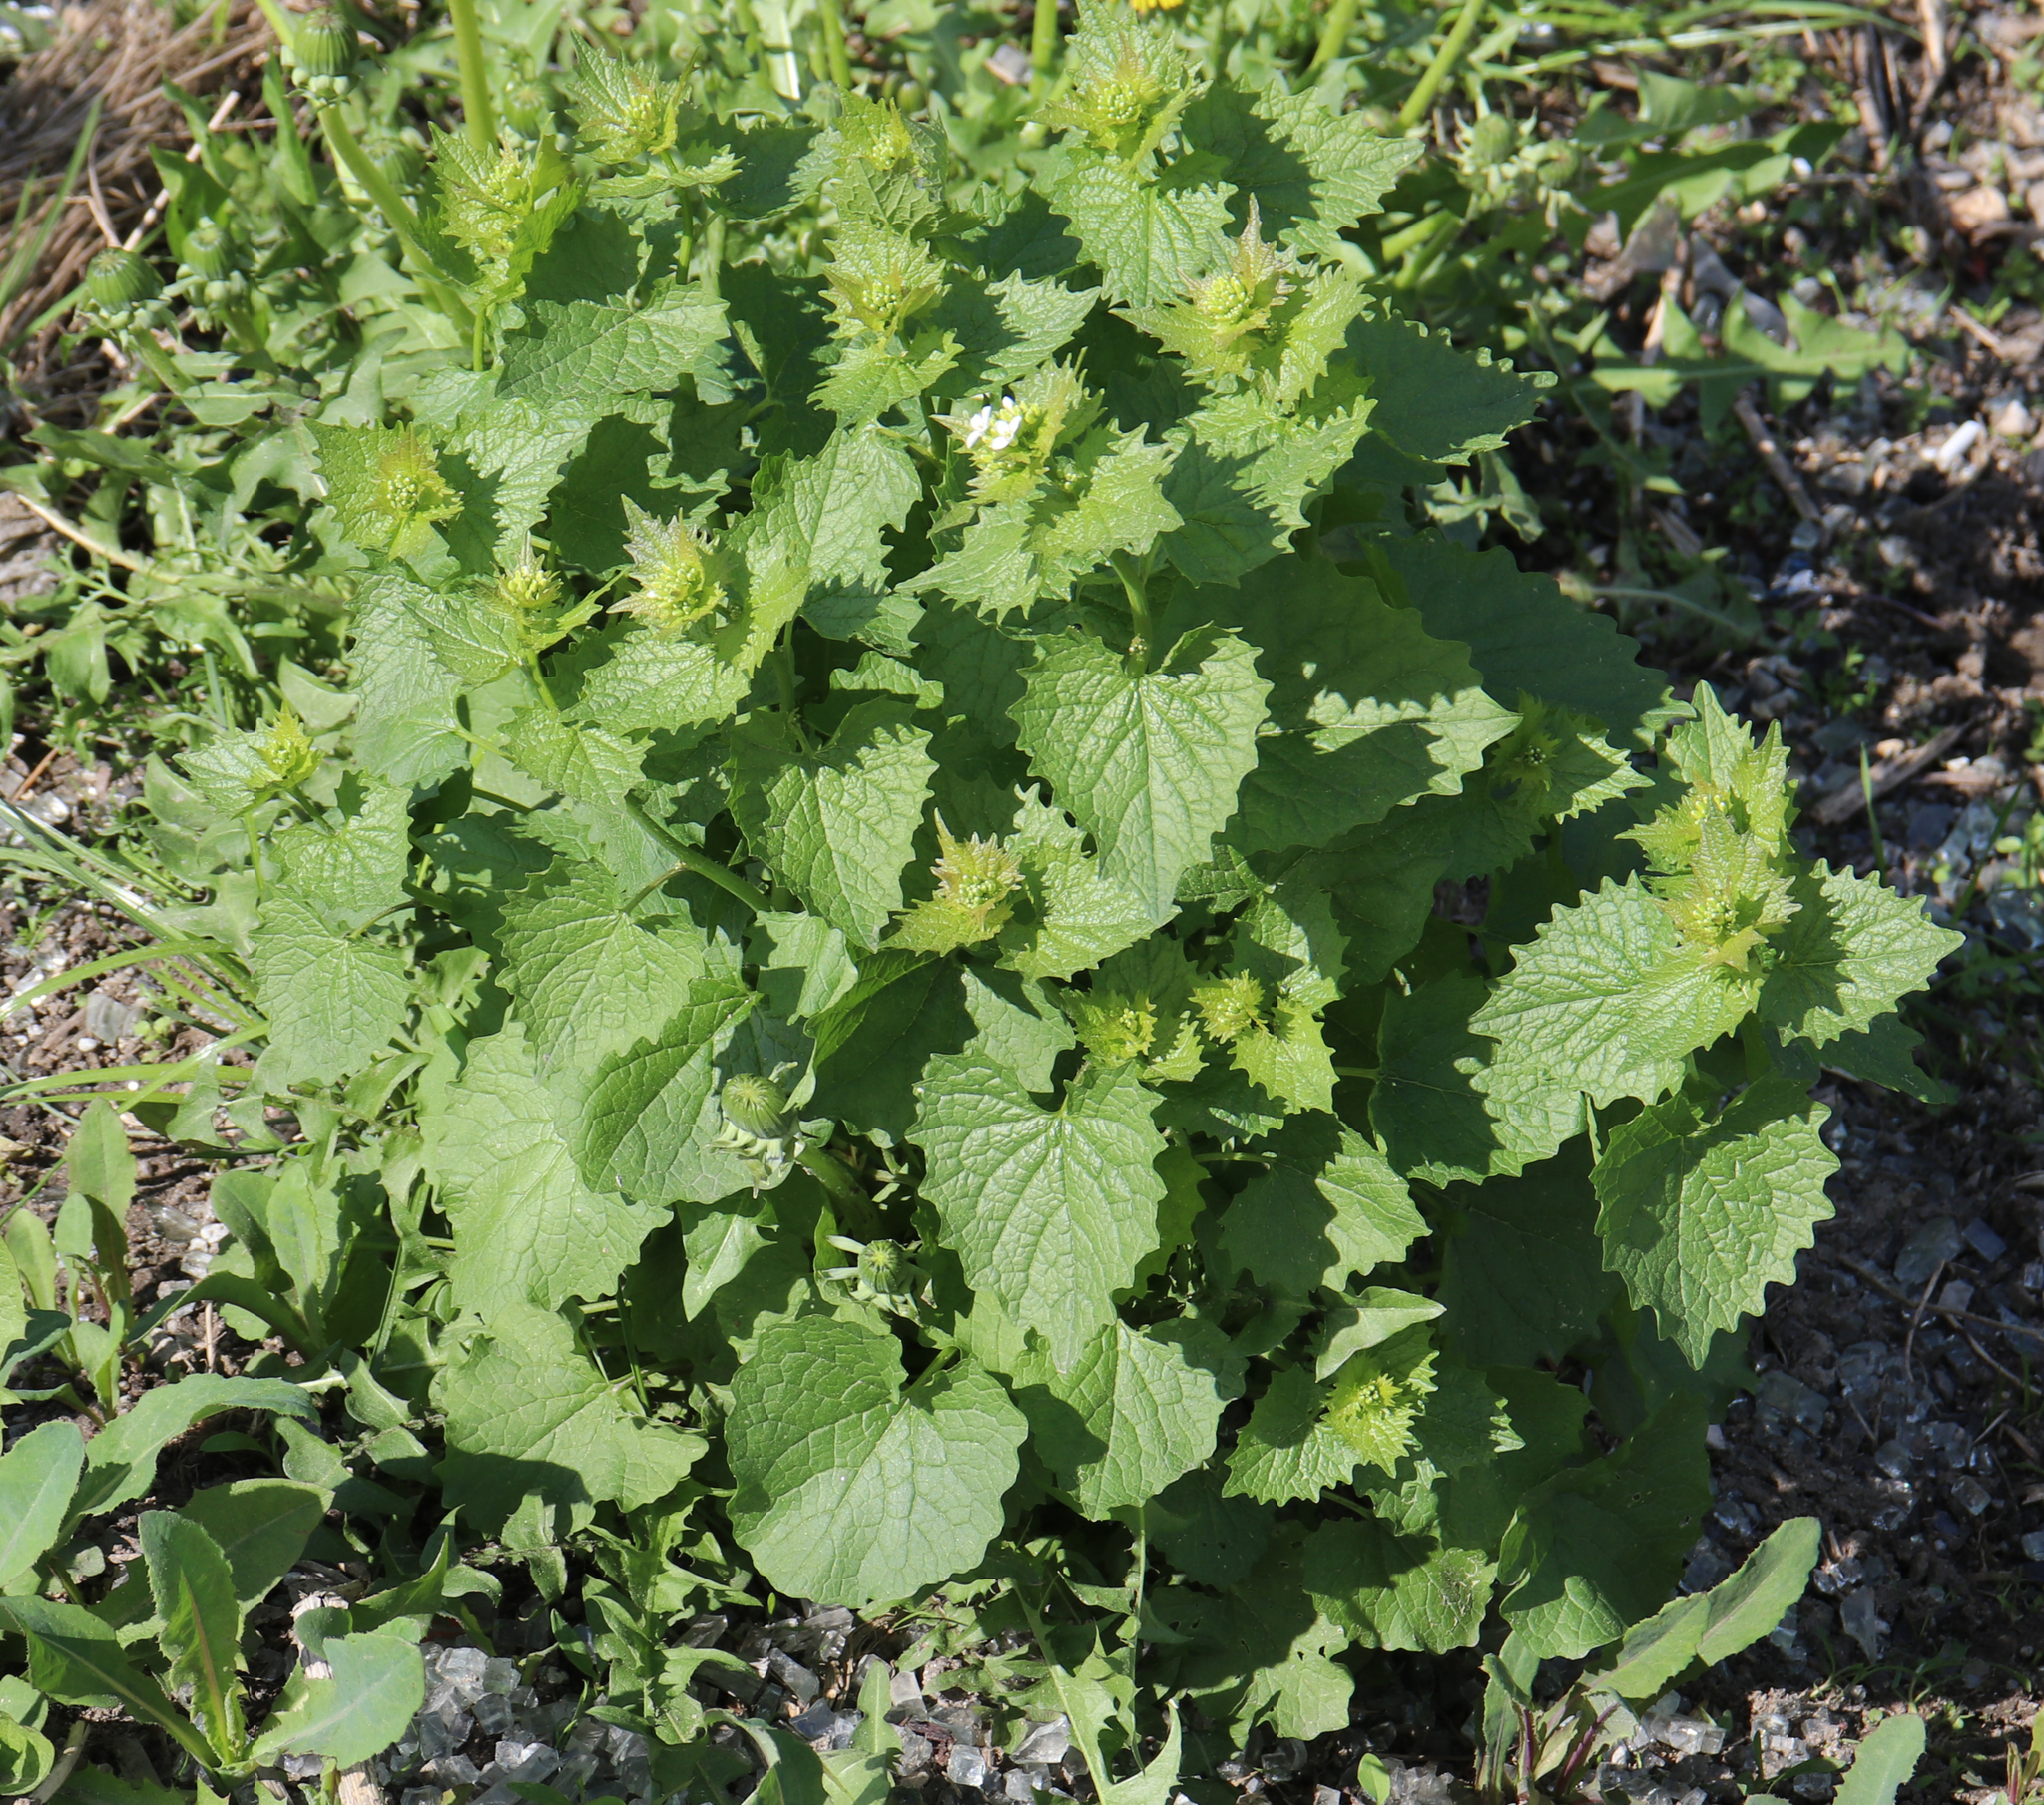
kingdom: Plantae
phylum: Tracheophyta
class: Magnoliopsida
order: Brassicales
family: Brassicaceae
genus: Alliaria
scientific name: Alliaria petiolata
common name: Garlic mustard
